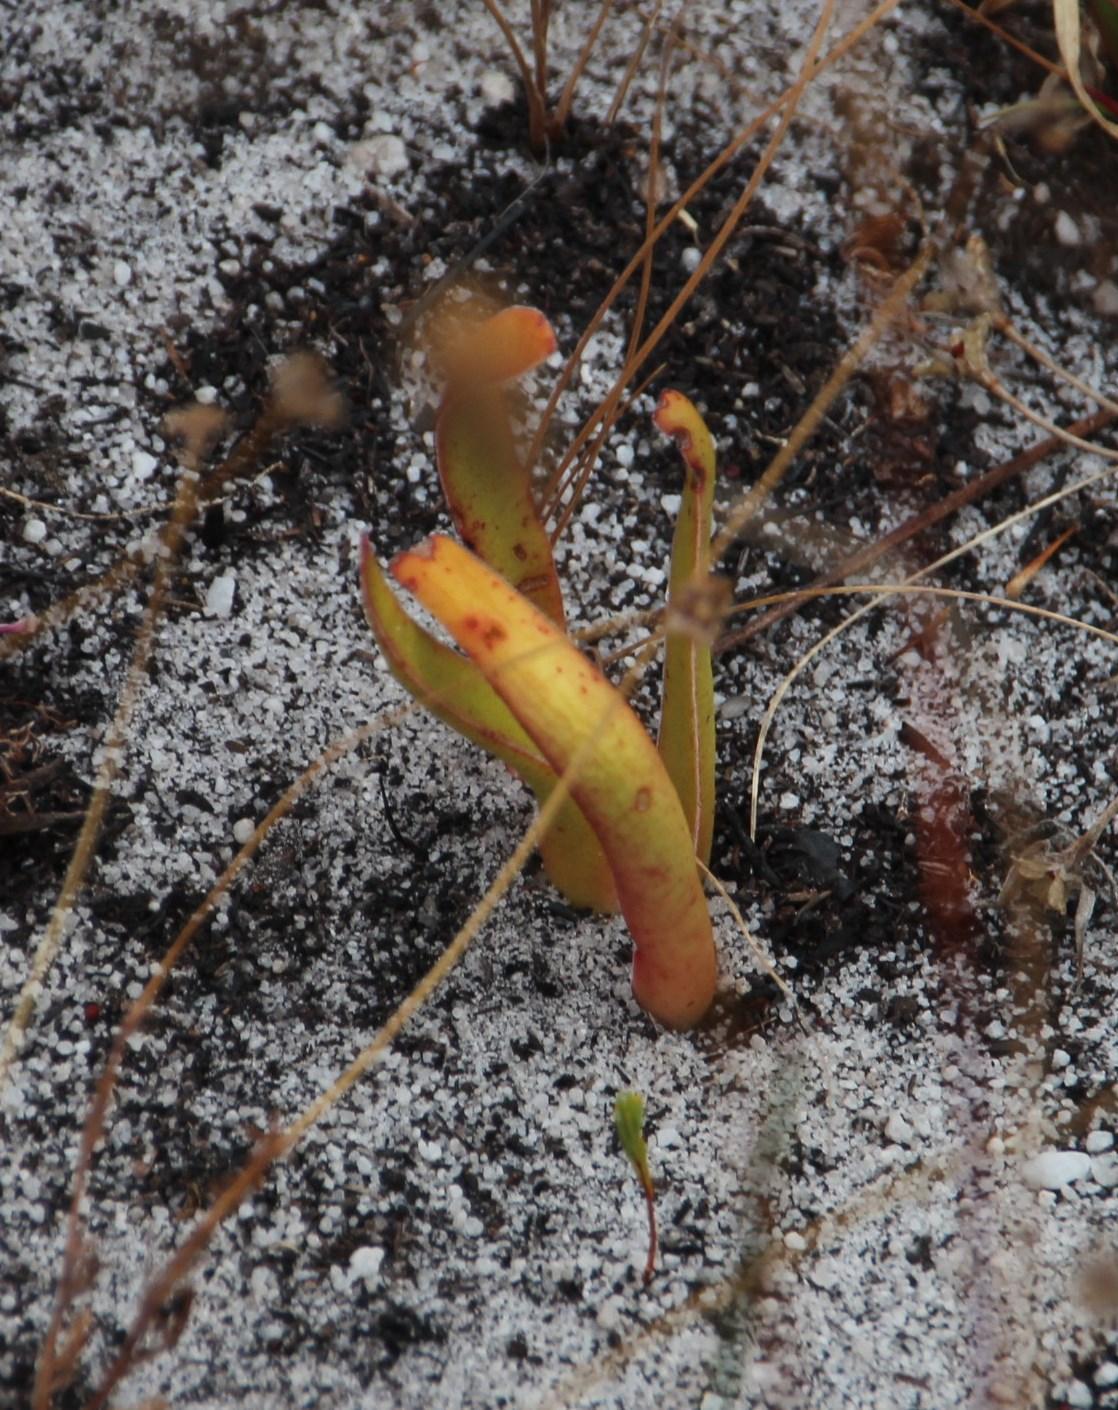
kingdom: Plantae
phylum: Tracheophyta
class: Magnoliopsida
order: Saxifragales
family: Crassulaceae
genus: Crassula
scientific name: Crassula nudicaulis
